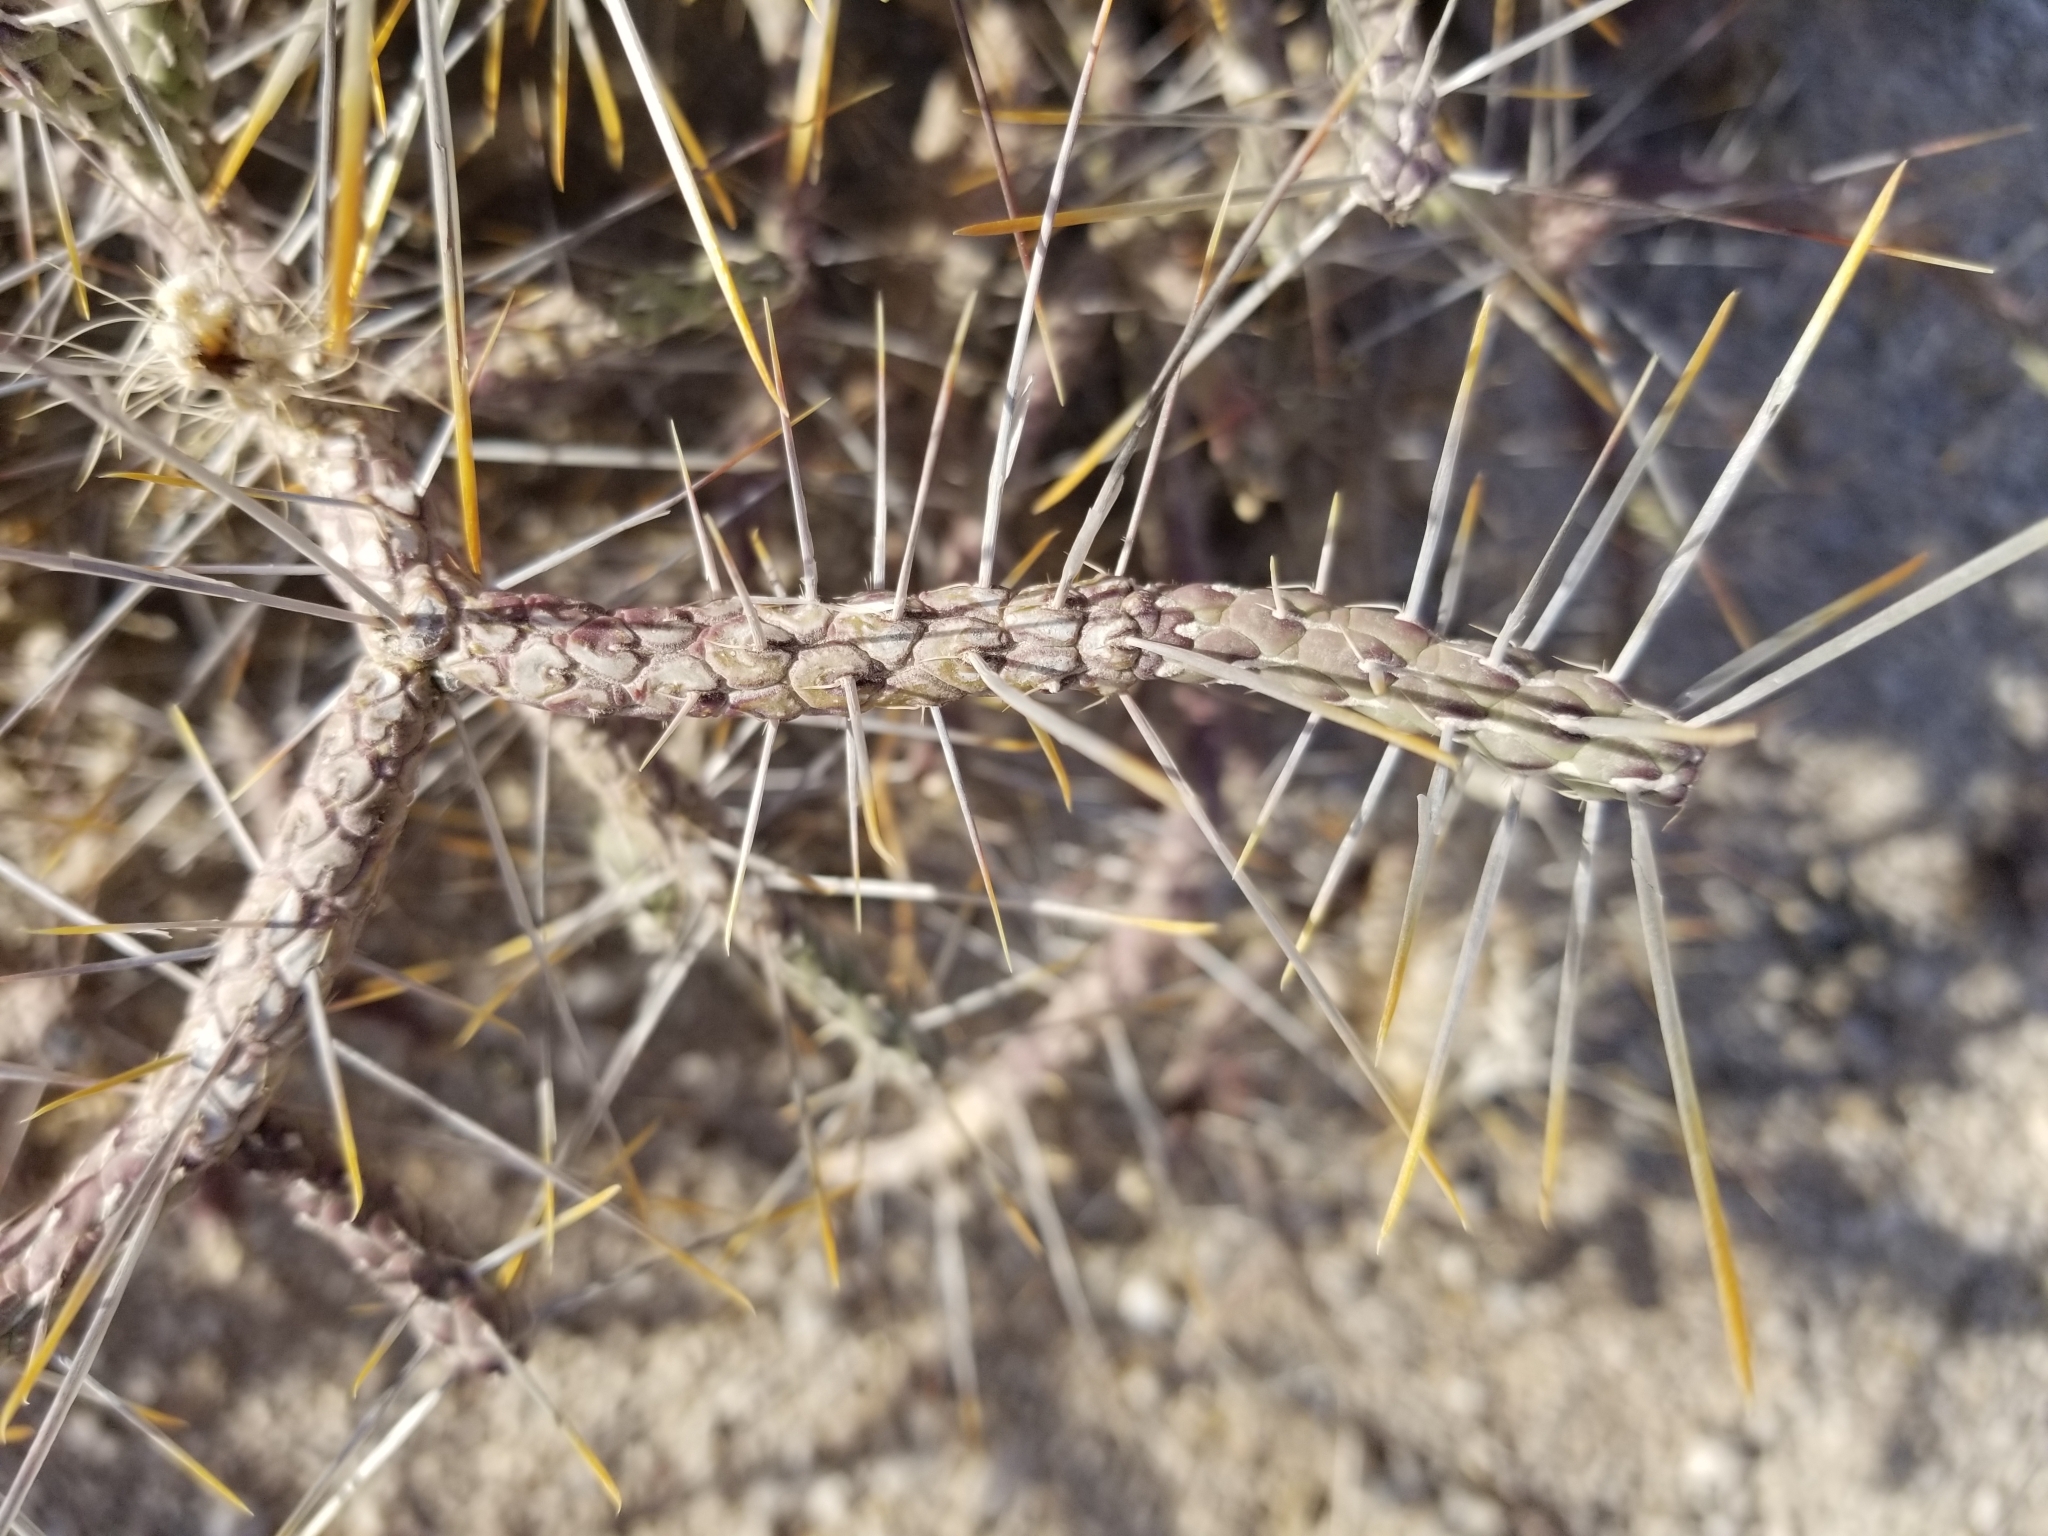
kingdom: Plantae
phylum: Tracheophyta
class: Magnoliopsida
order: Caryophyllales
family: Cactaceae
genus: Cylindropuntia
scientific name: Cylindropuntia ramosissima
